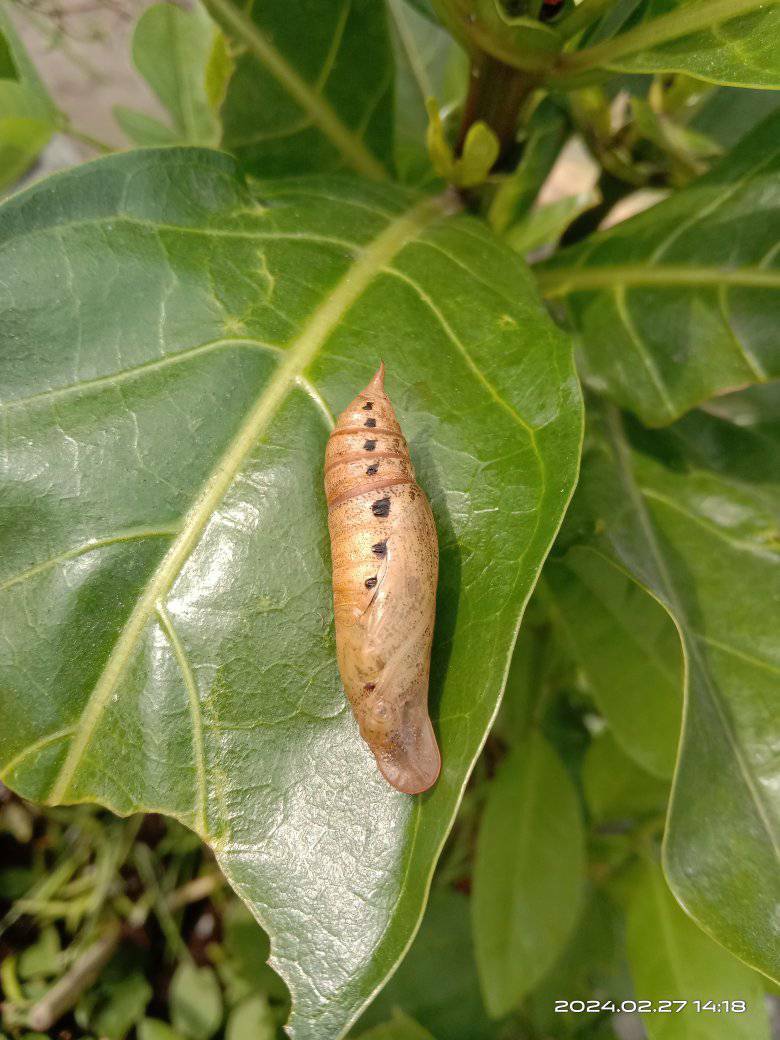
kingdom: Animalia
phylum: Arthropoda
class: Insecta
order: Lepidoptera
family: Sphingidae
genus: Macroglossum
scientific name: Macroglossum sitiene
